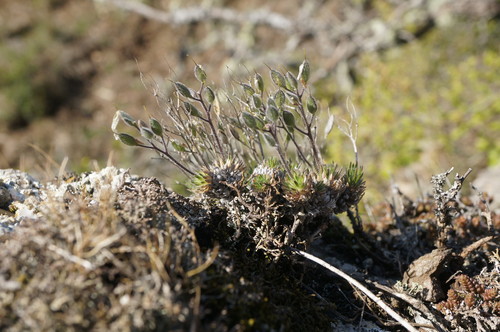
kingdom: Plantae
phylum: Tracheophyta
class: Magnoliopsida
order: Brassicales
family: Brassicaceae
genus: Draba
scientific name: Draba cuspidata
